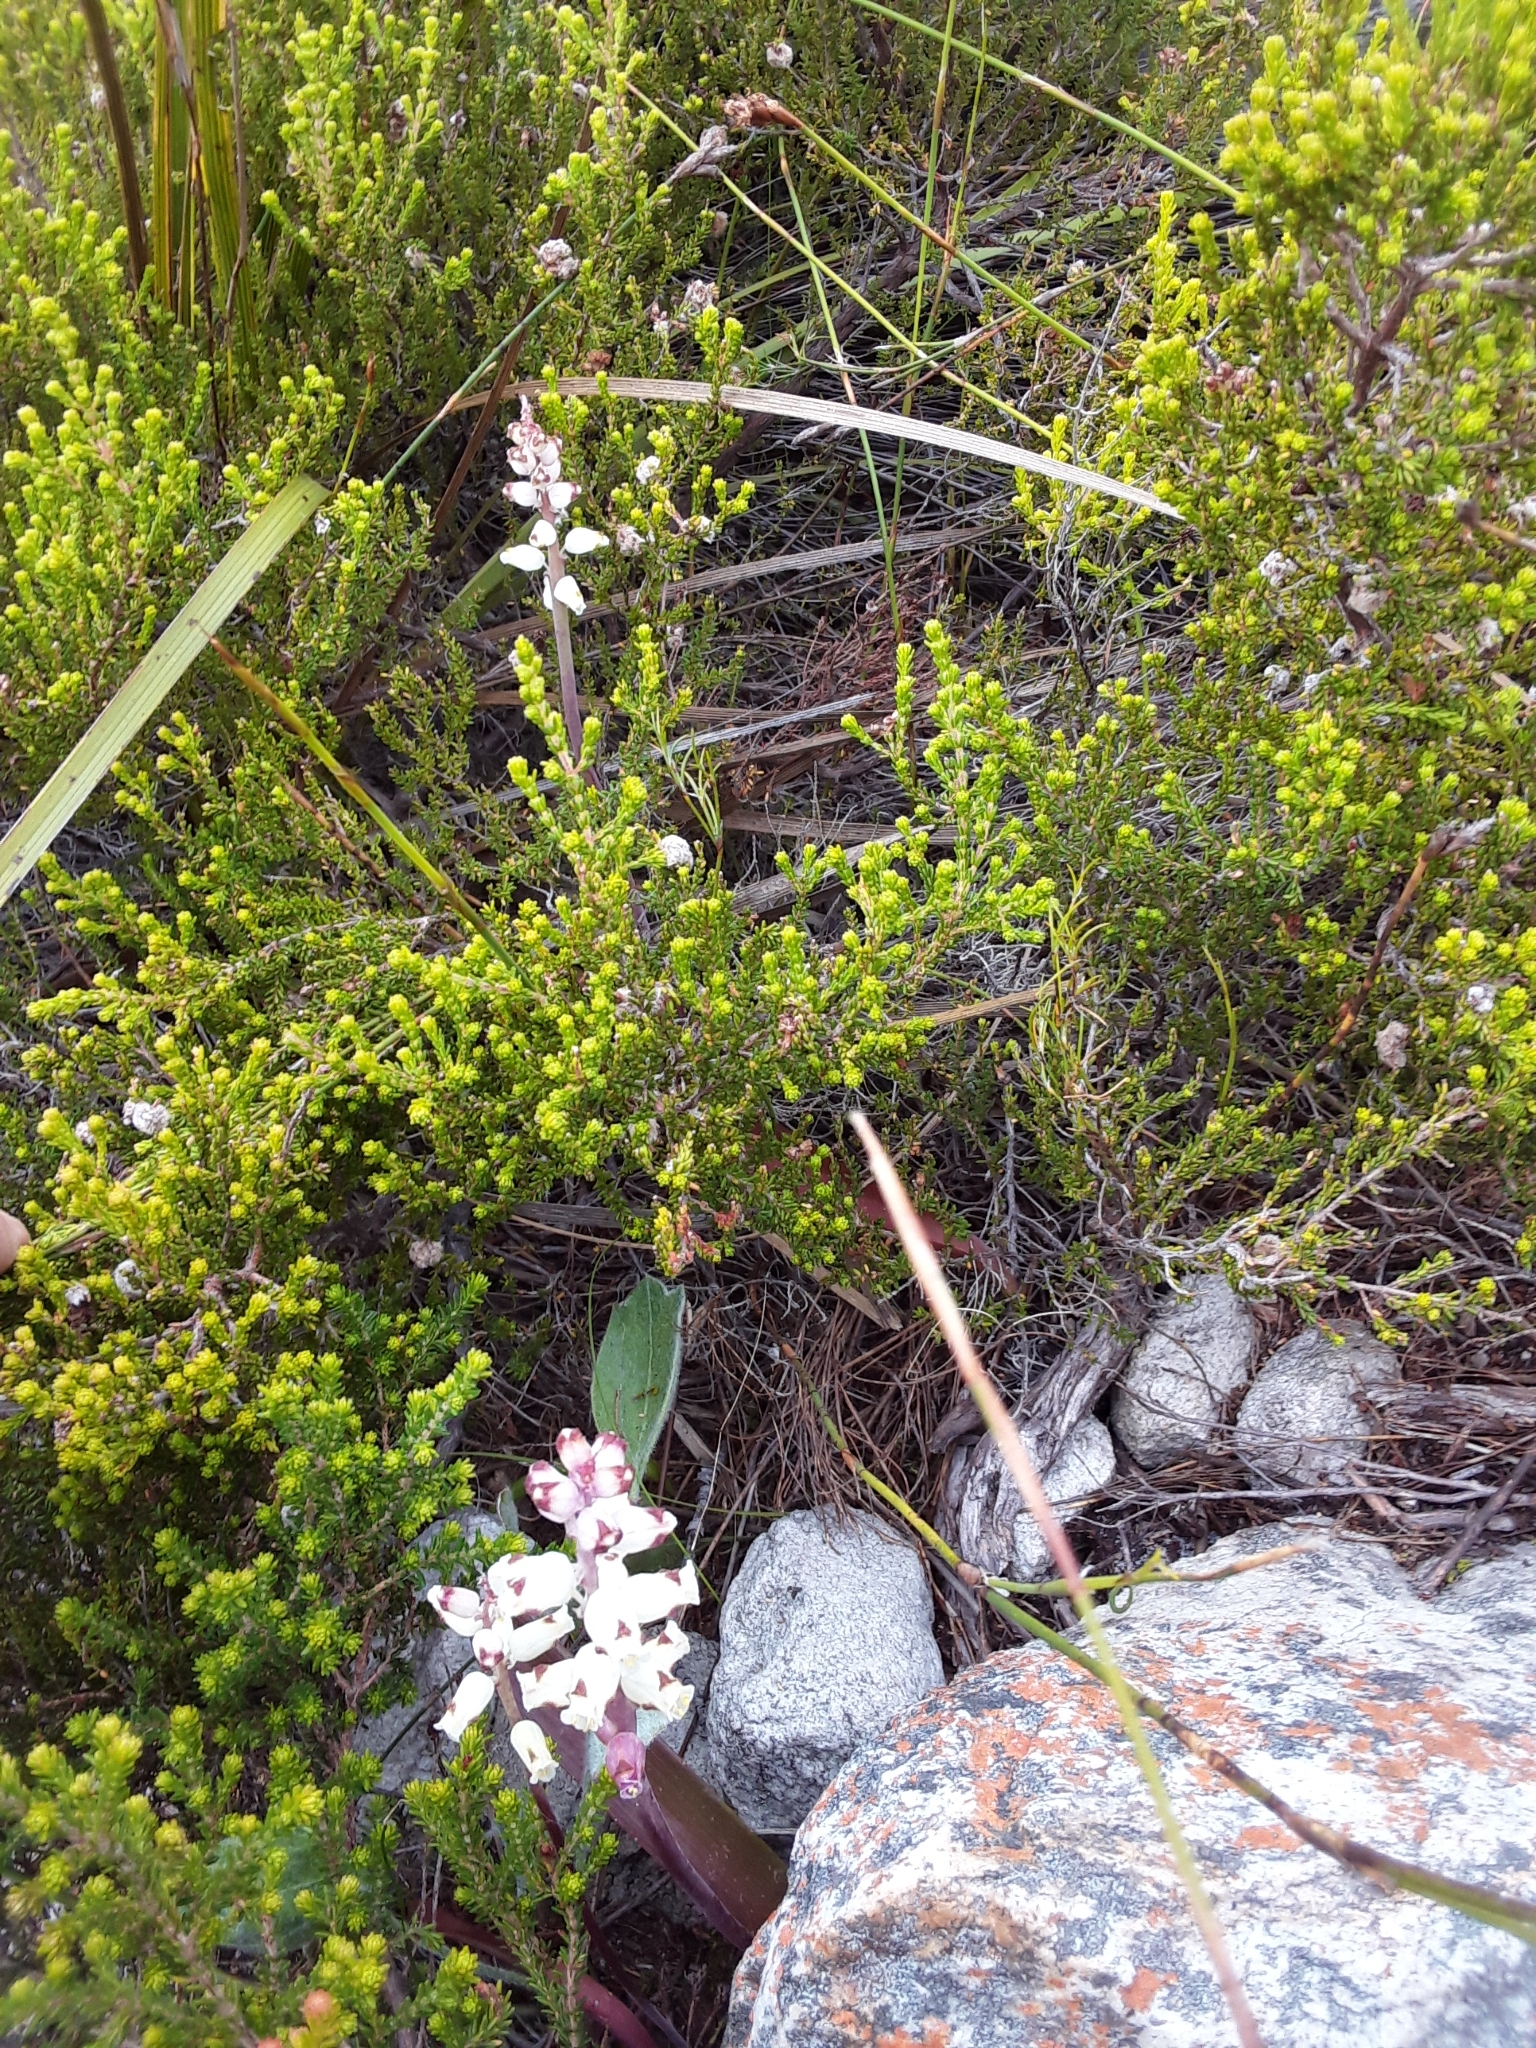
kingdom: Plantae
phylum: Tracheophyta
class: Liliopsida
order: Asparagales
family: Asparagaceae
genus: Lachenalia
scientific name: Lachenalia peersii
